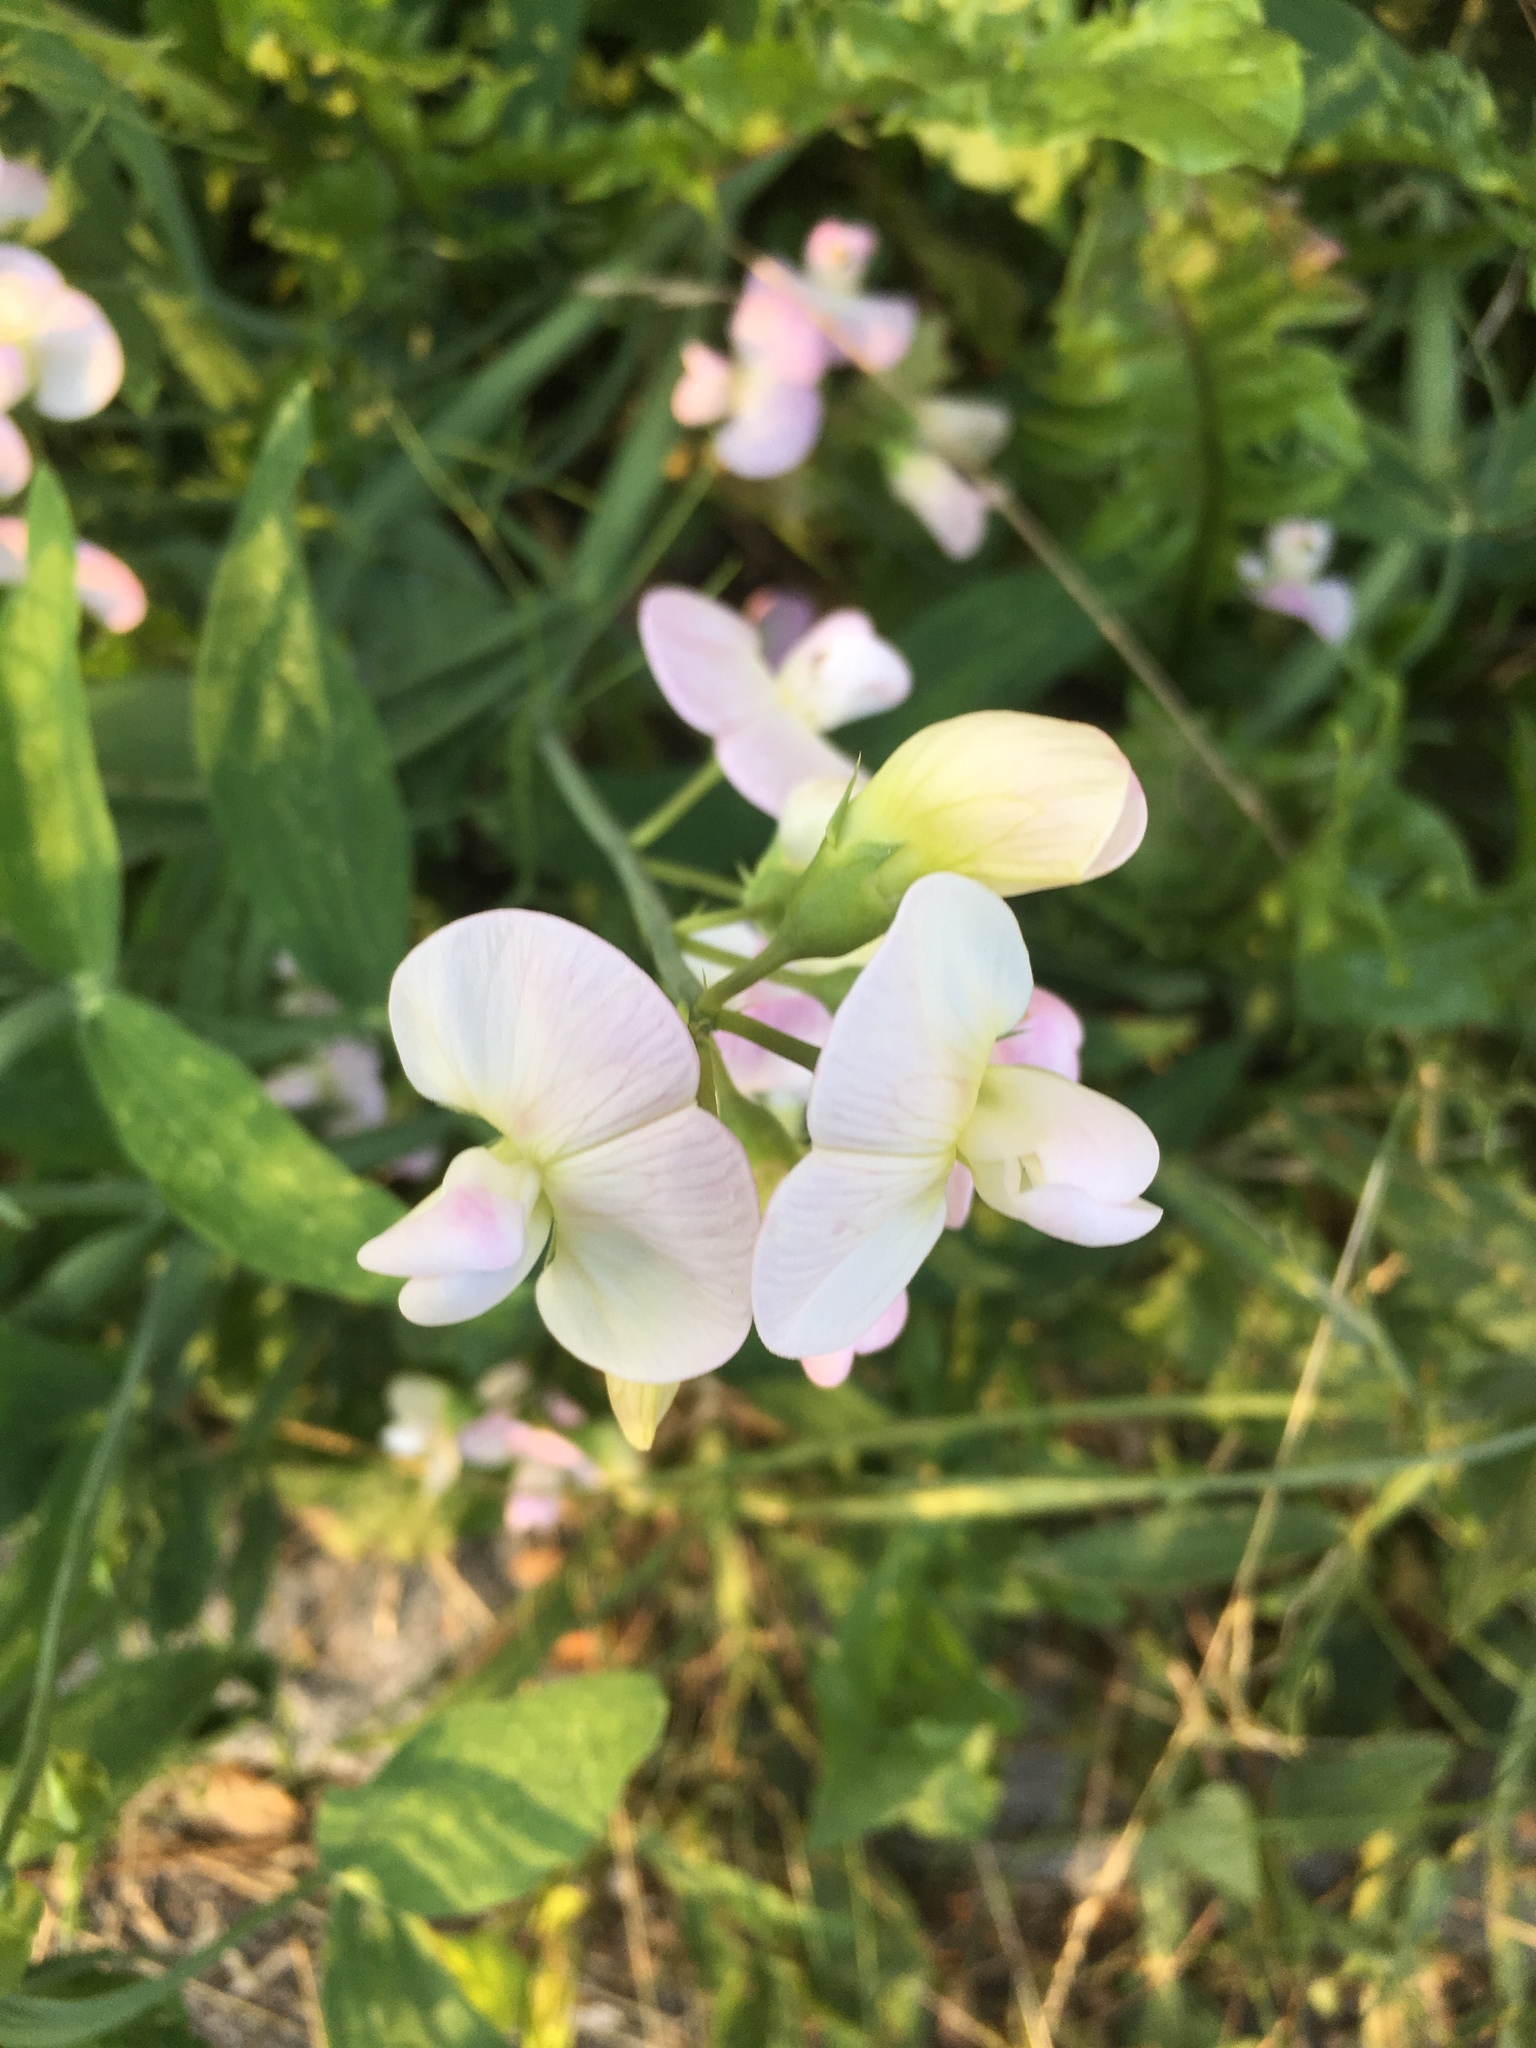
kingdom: Plantae
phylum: Tracheophyta
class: Magnoliopsida
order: Fabales
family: Fabaceae
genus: Lathyrus
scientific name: Lathyrus latifolius
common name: Perennial pea
